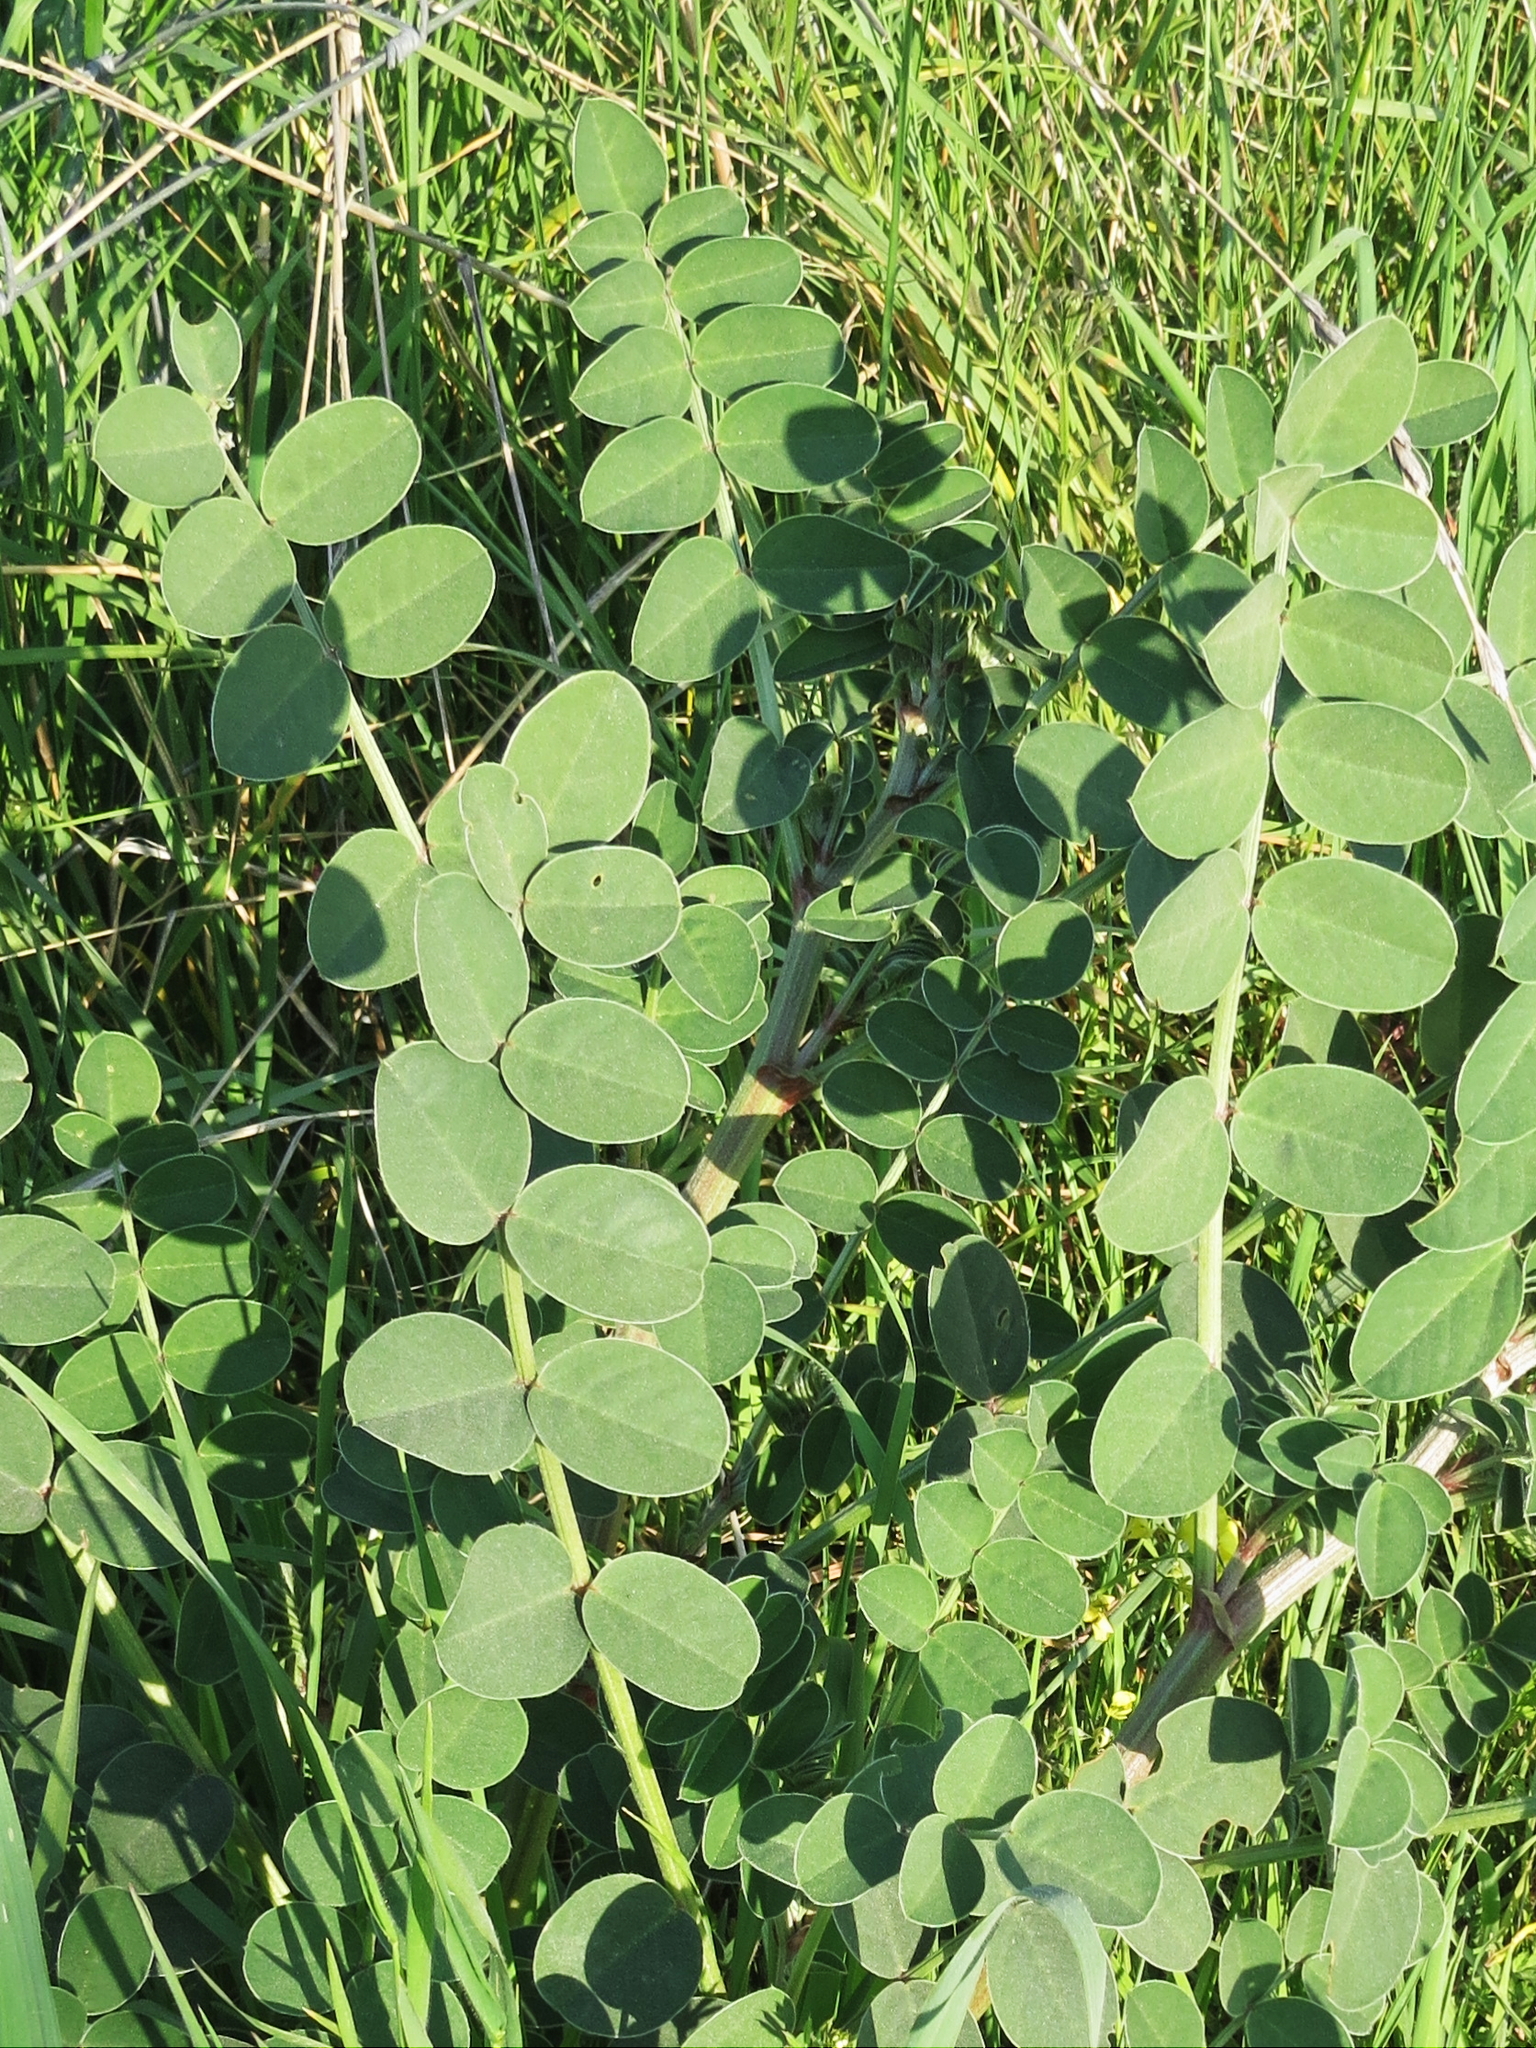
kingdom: Plantae
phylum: Tracheophyta
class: Magnoliopsida
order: Fabales
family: Fabaceae
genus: Sulla
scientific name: Sulla coronaria
